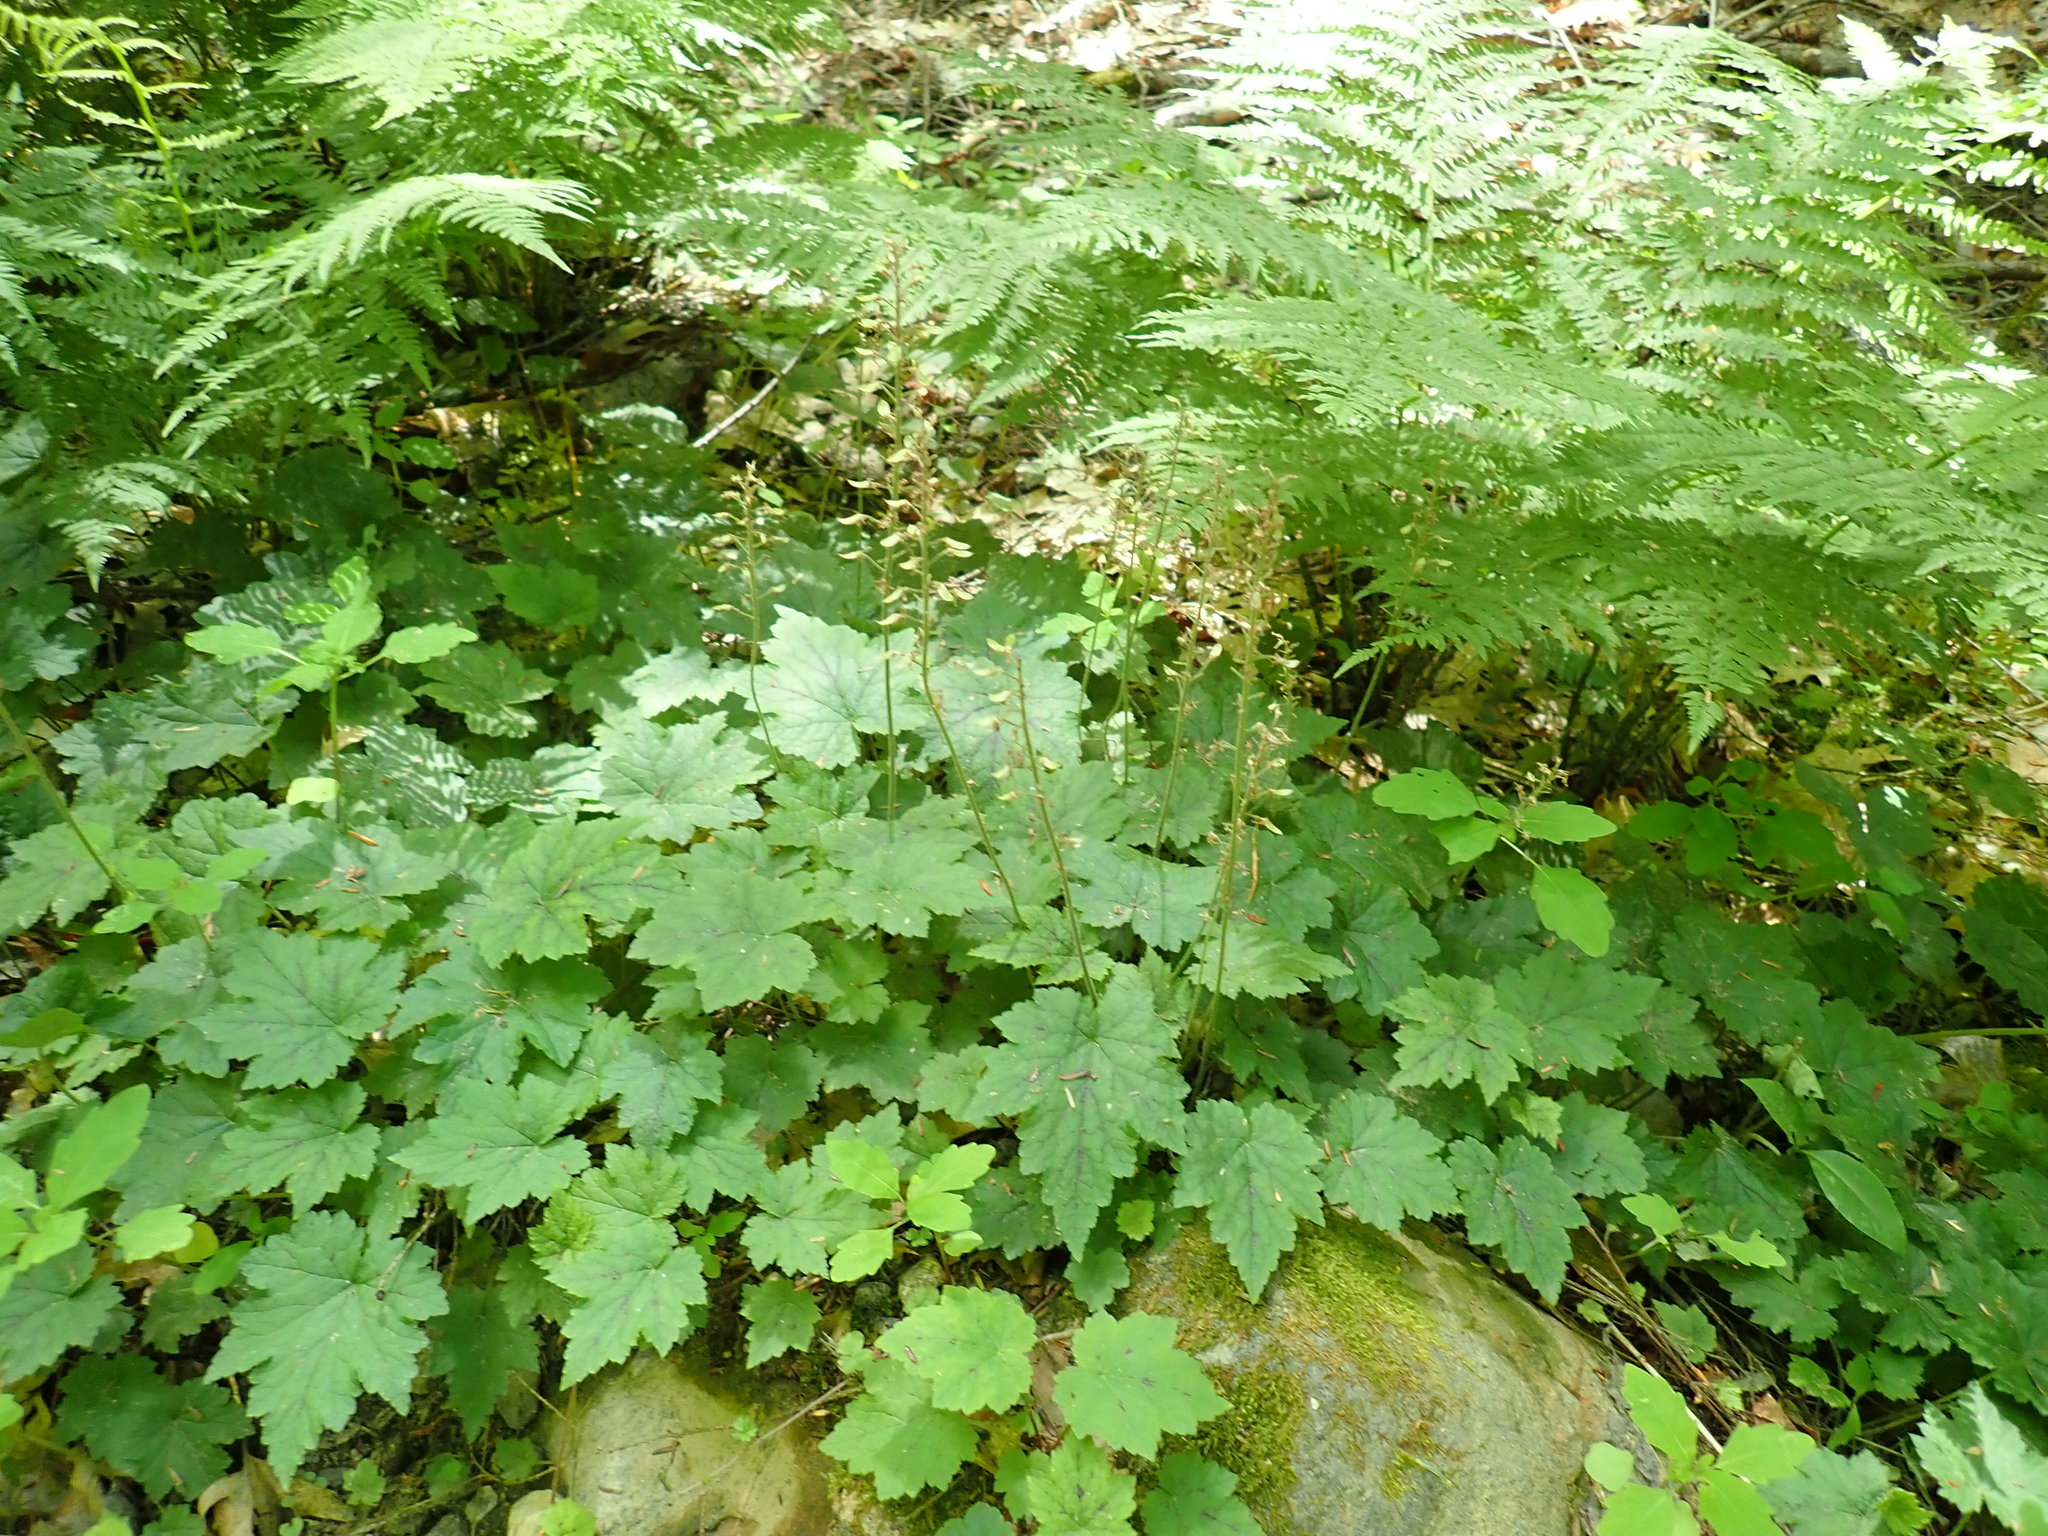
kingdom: Plantae
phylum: Tracheophyta
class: Magnoliopsida
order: Saxifragales
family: Saxifragaceae
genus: Tiarella
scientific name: Tiarella stolonifera
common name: Stoloniferous foamflower
